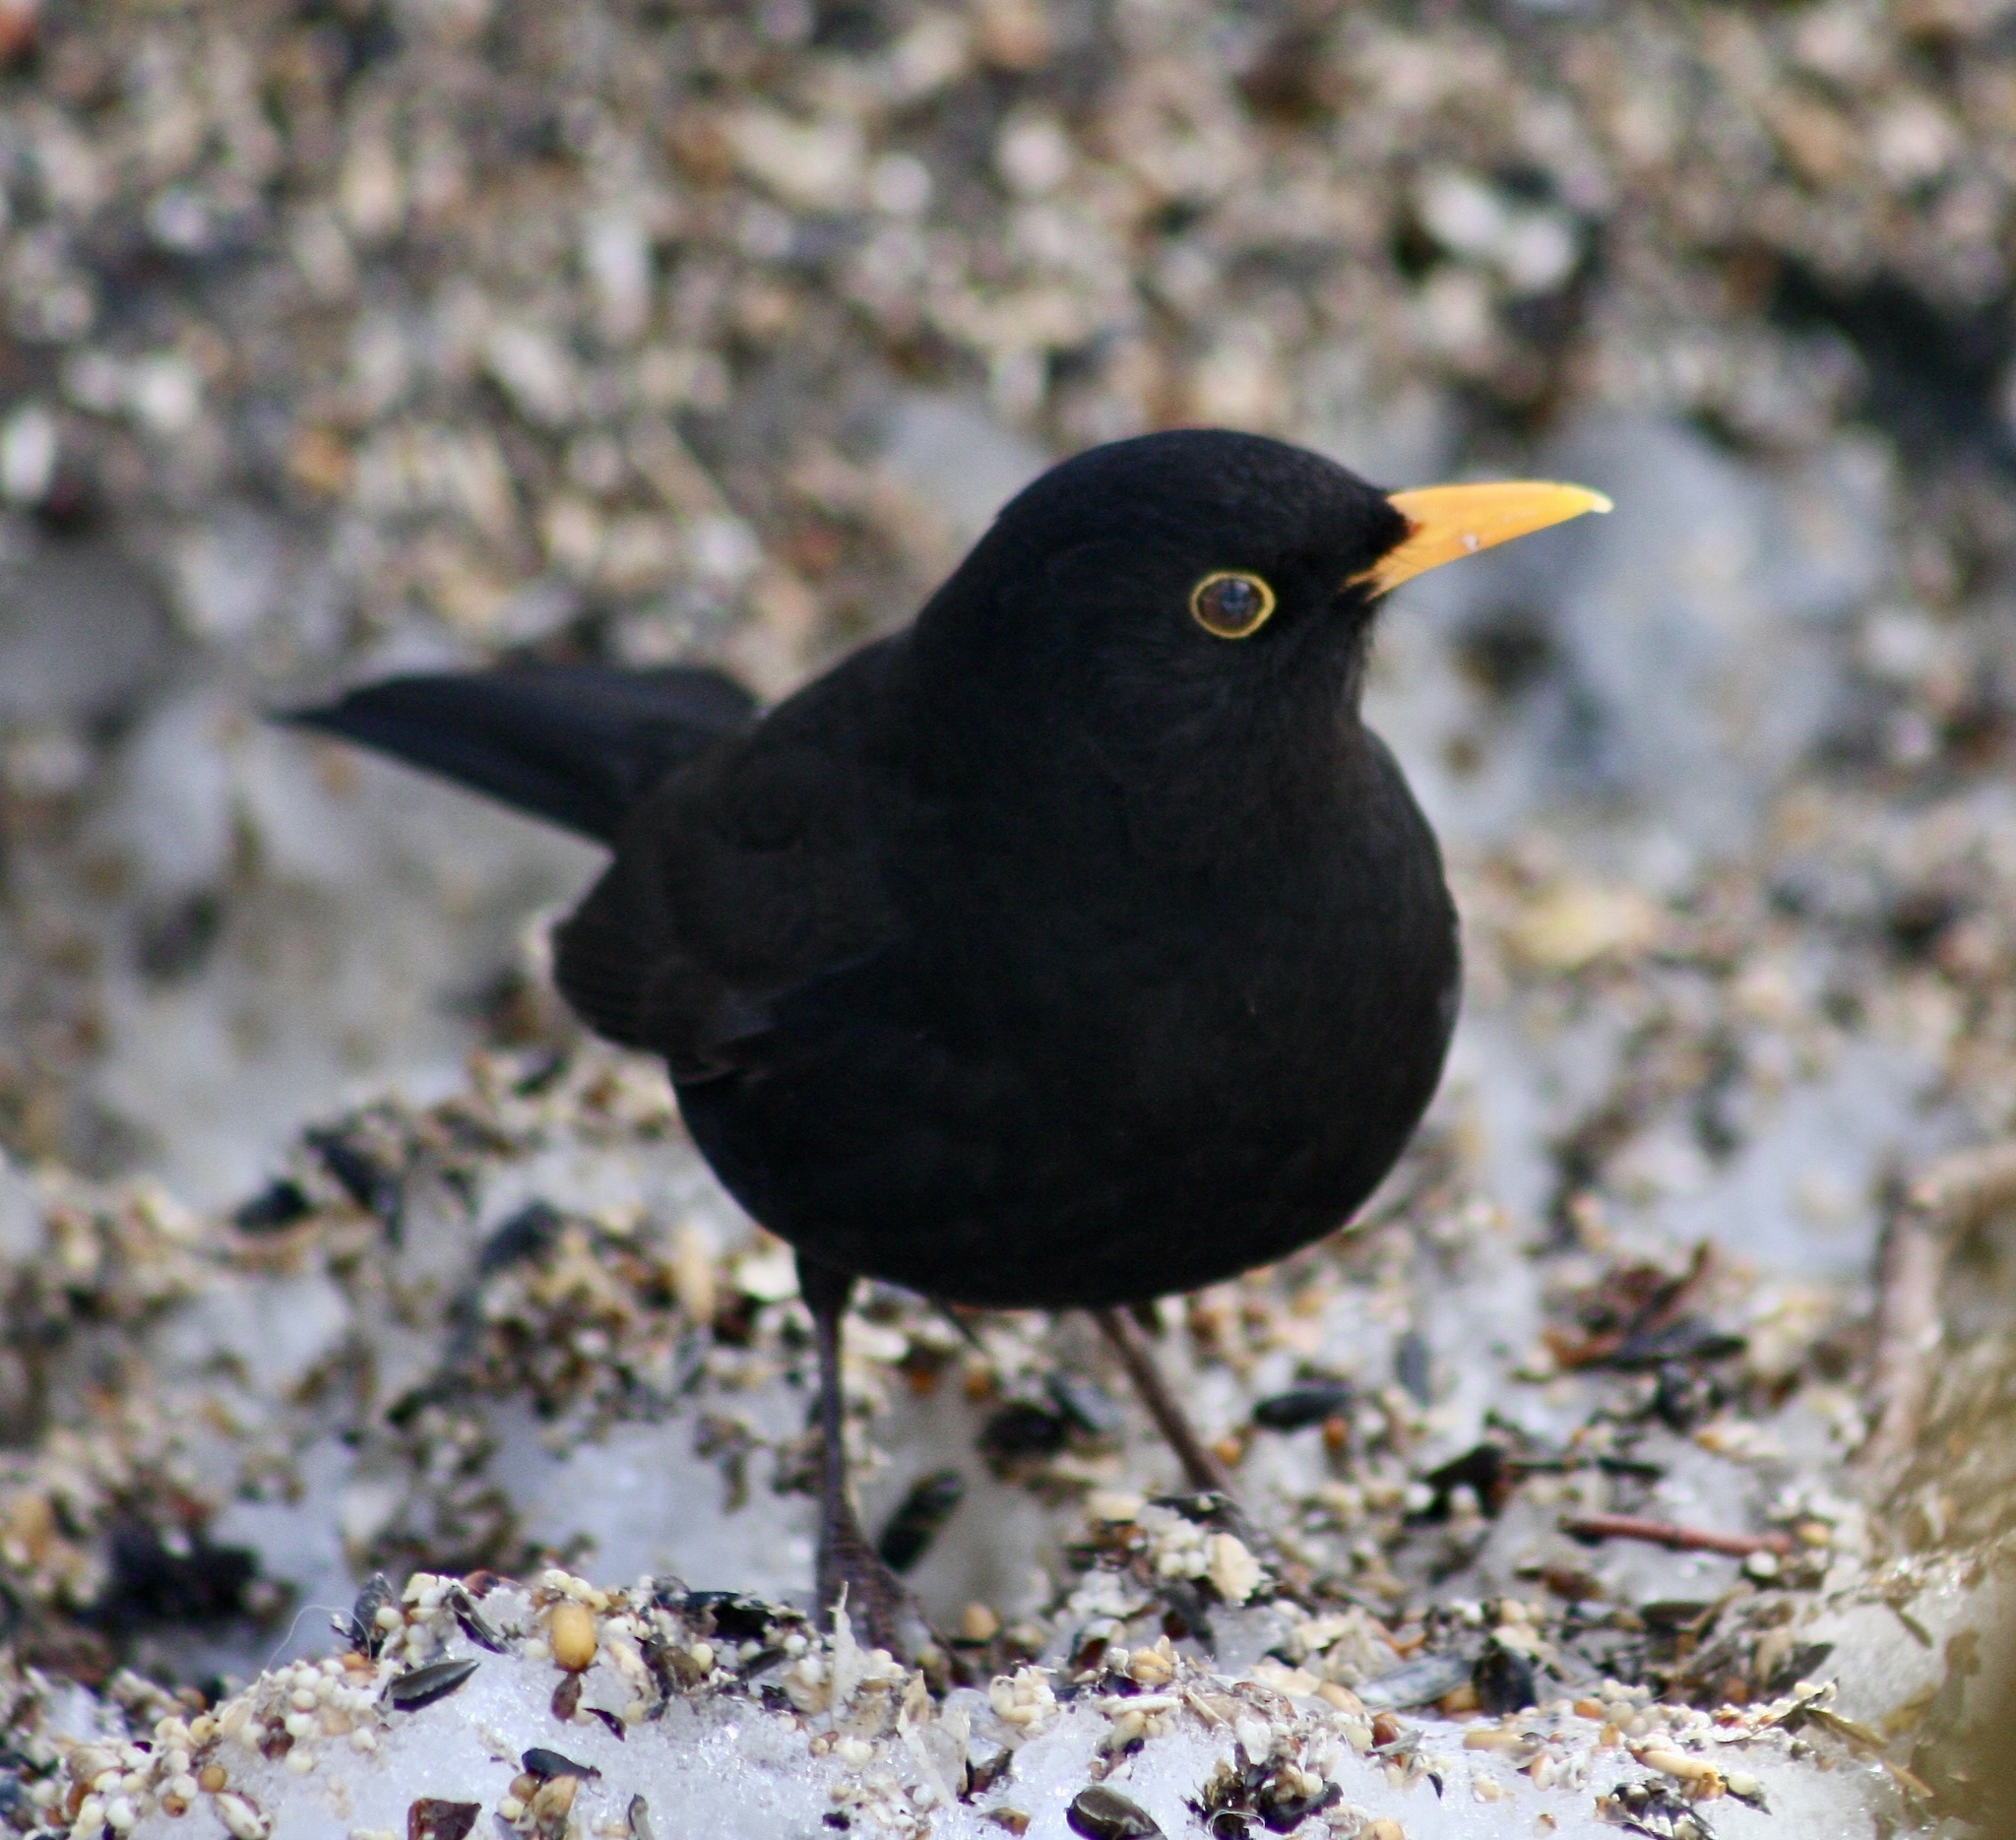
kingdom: Animalia
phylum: Chordata
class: Aves
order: Passeriformes
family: Turdidae
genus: Turdus
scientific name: Turdus merula
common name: Common blackbird
